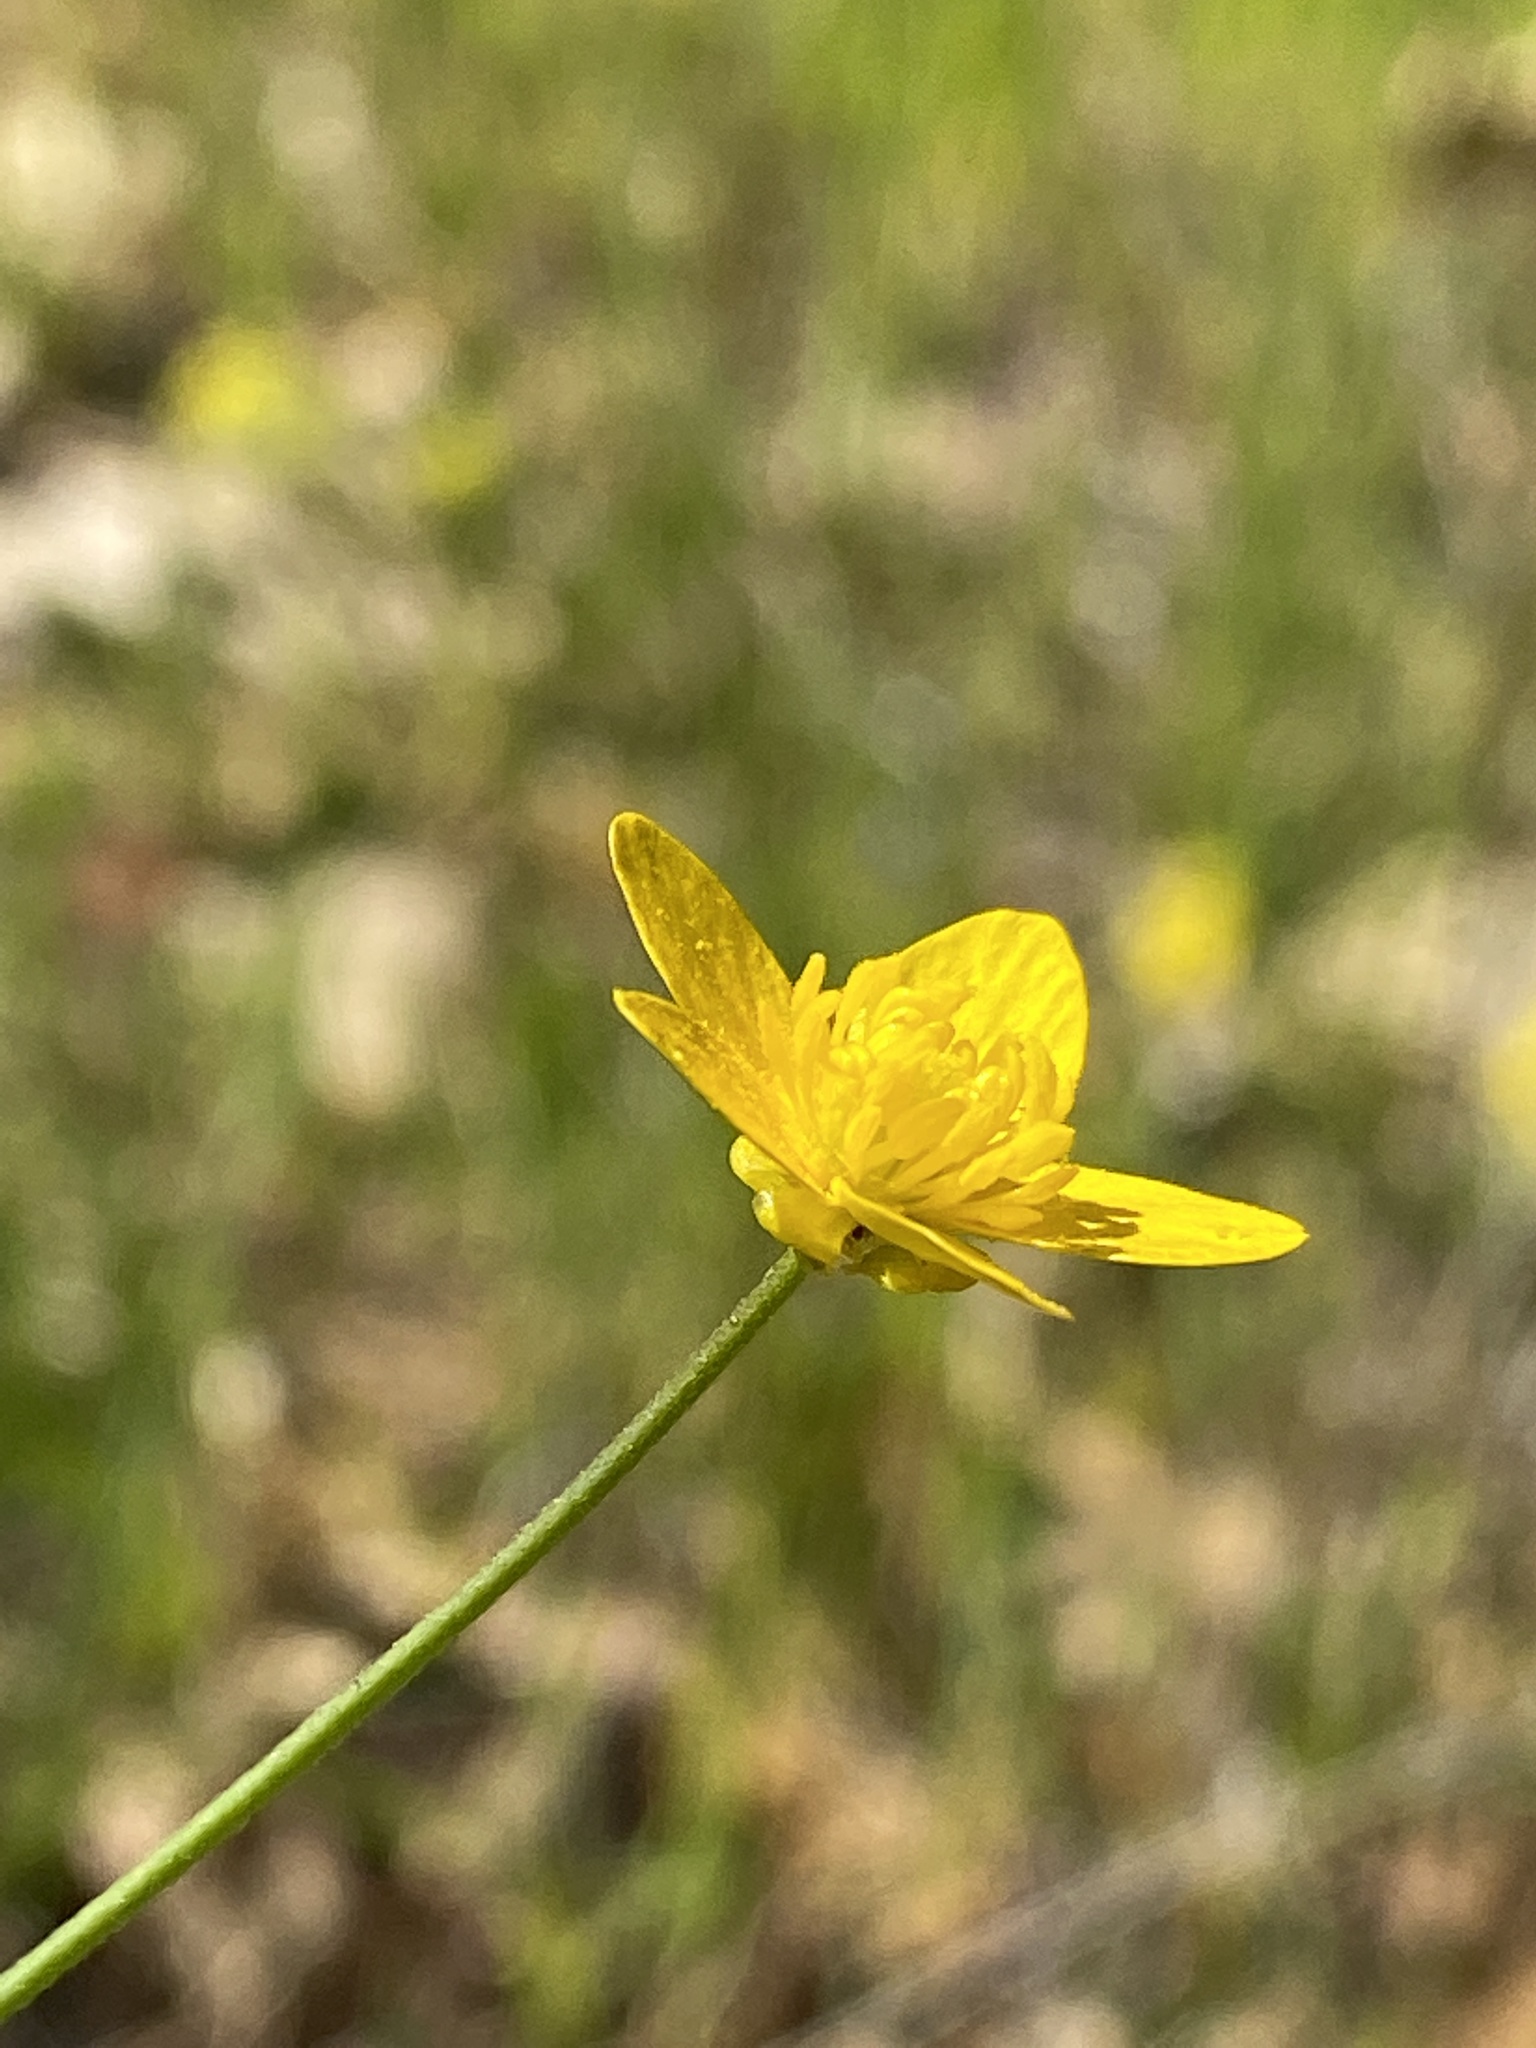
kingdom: Plantae
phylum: Tracheophyta
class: Magnoliopsida
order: Ranunculales
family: Ranunculaceae
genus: Ranunculus
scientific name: Ranunculus occidentalis
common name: Western buttercup
